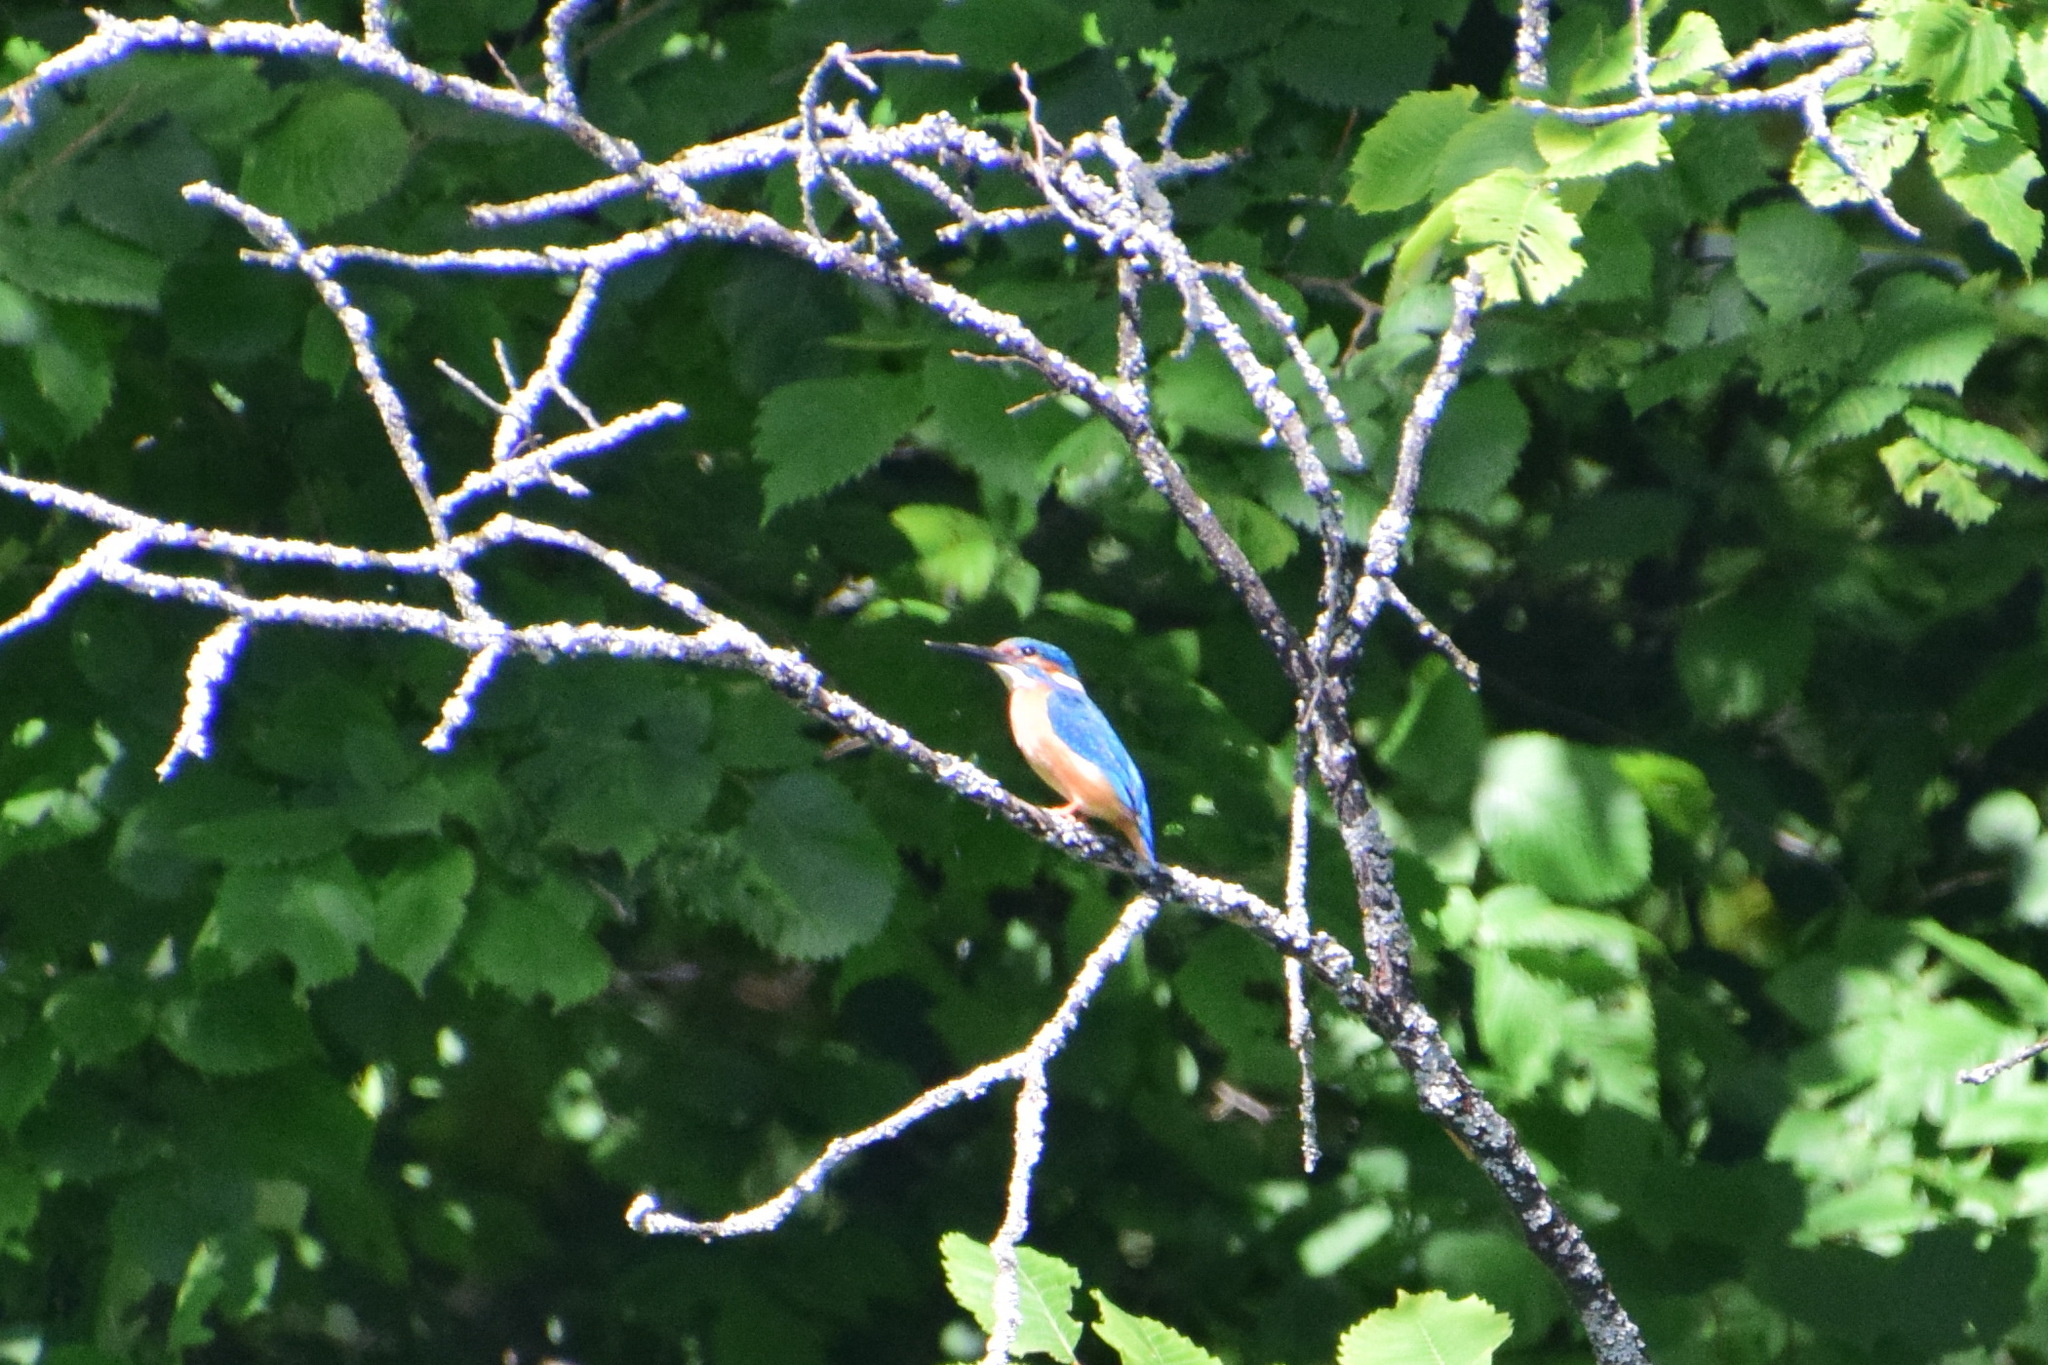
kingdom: Animalia
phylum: Chordata
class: Aves
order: Coraciiformes
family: Alcedinidae
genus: Alcedo
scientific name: Alcedo atthis
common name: Common kingfisher
